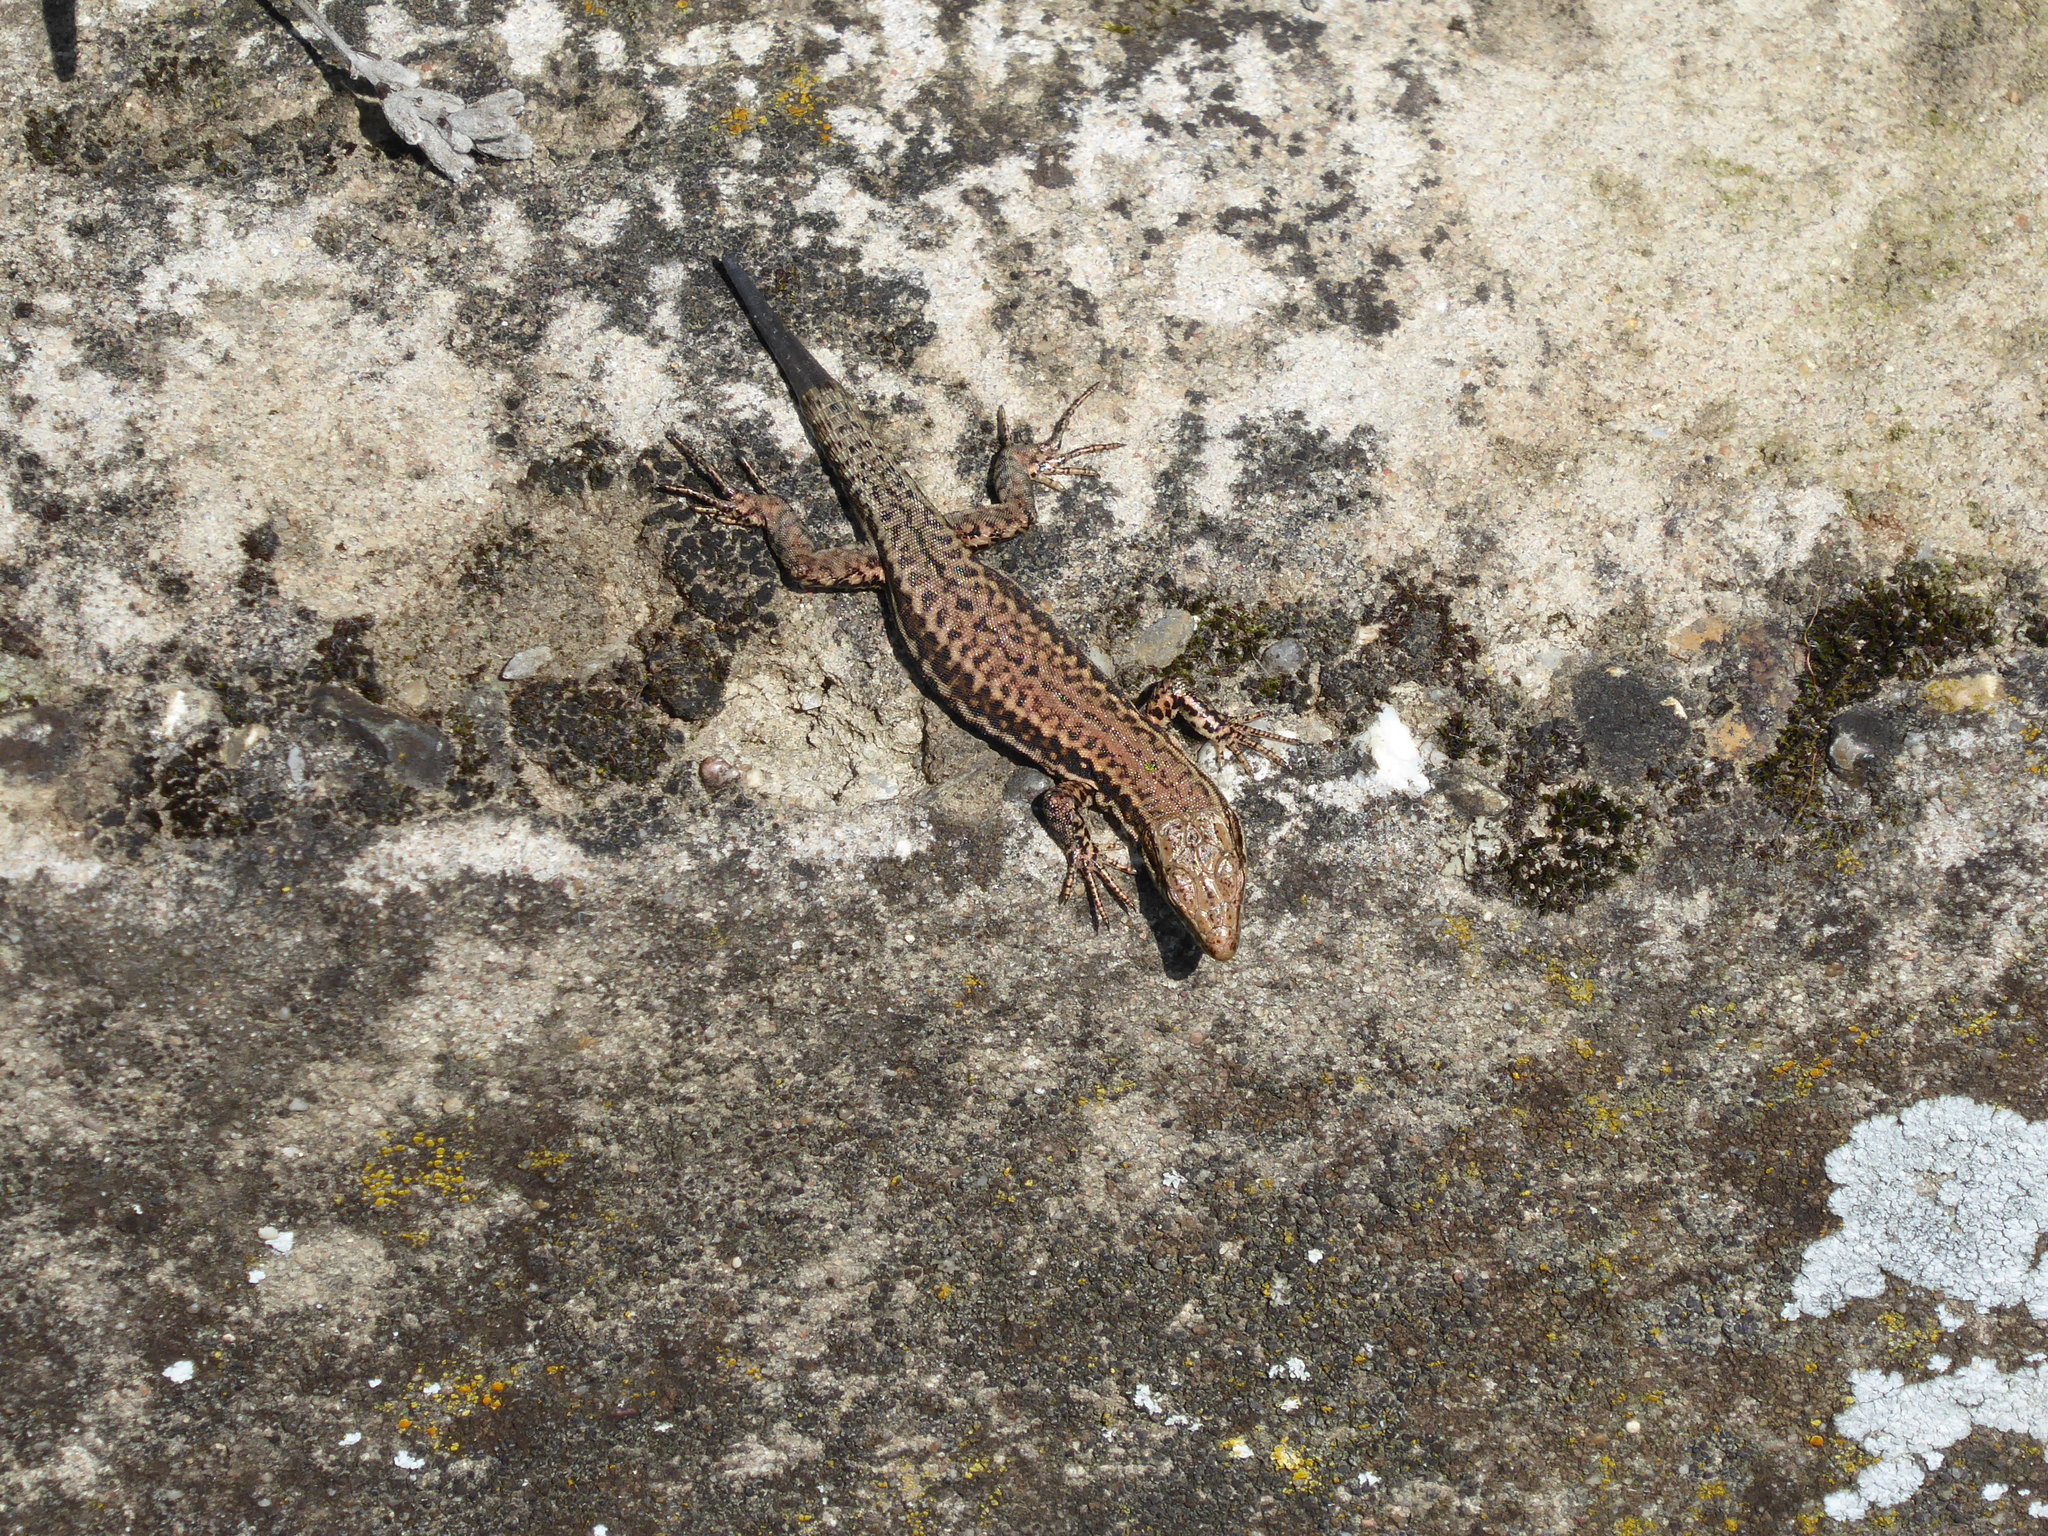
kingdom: Animalia
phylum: Chordata
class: Squamata
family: Lacertidae
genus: Podarcis
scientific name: Podarcis muralis
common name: Common wall lizard
